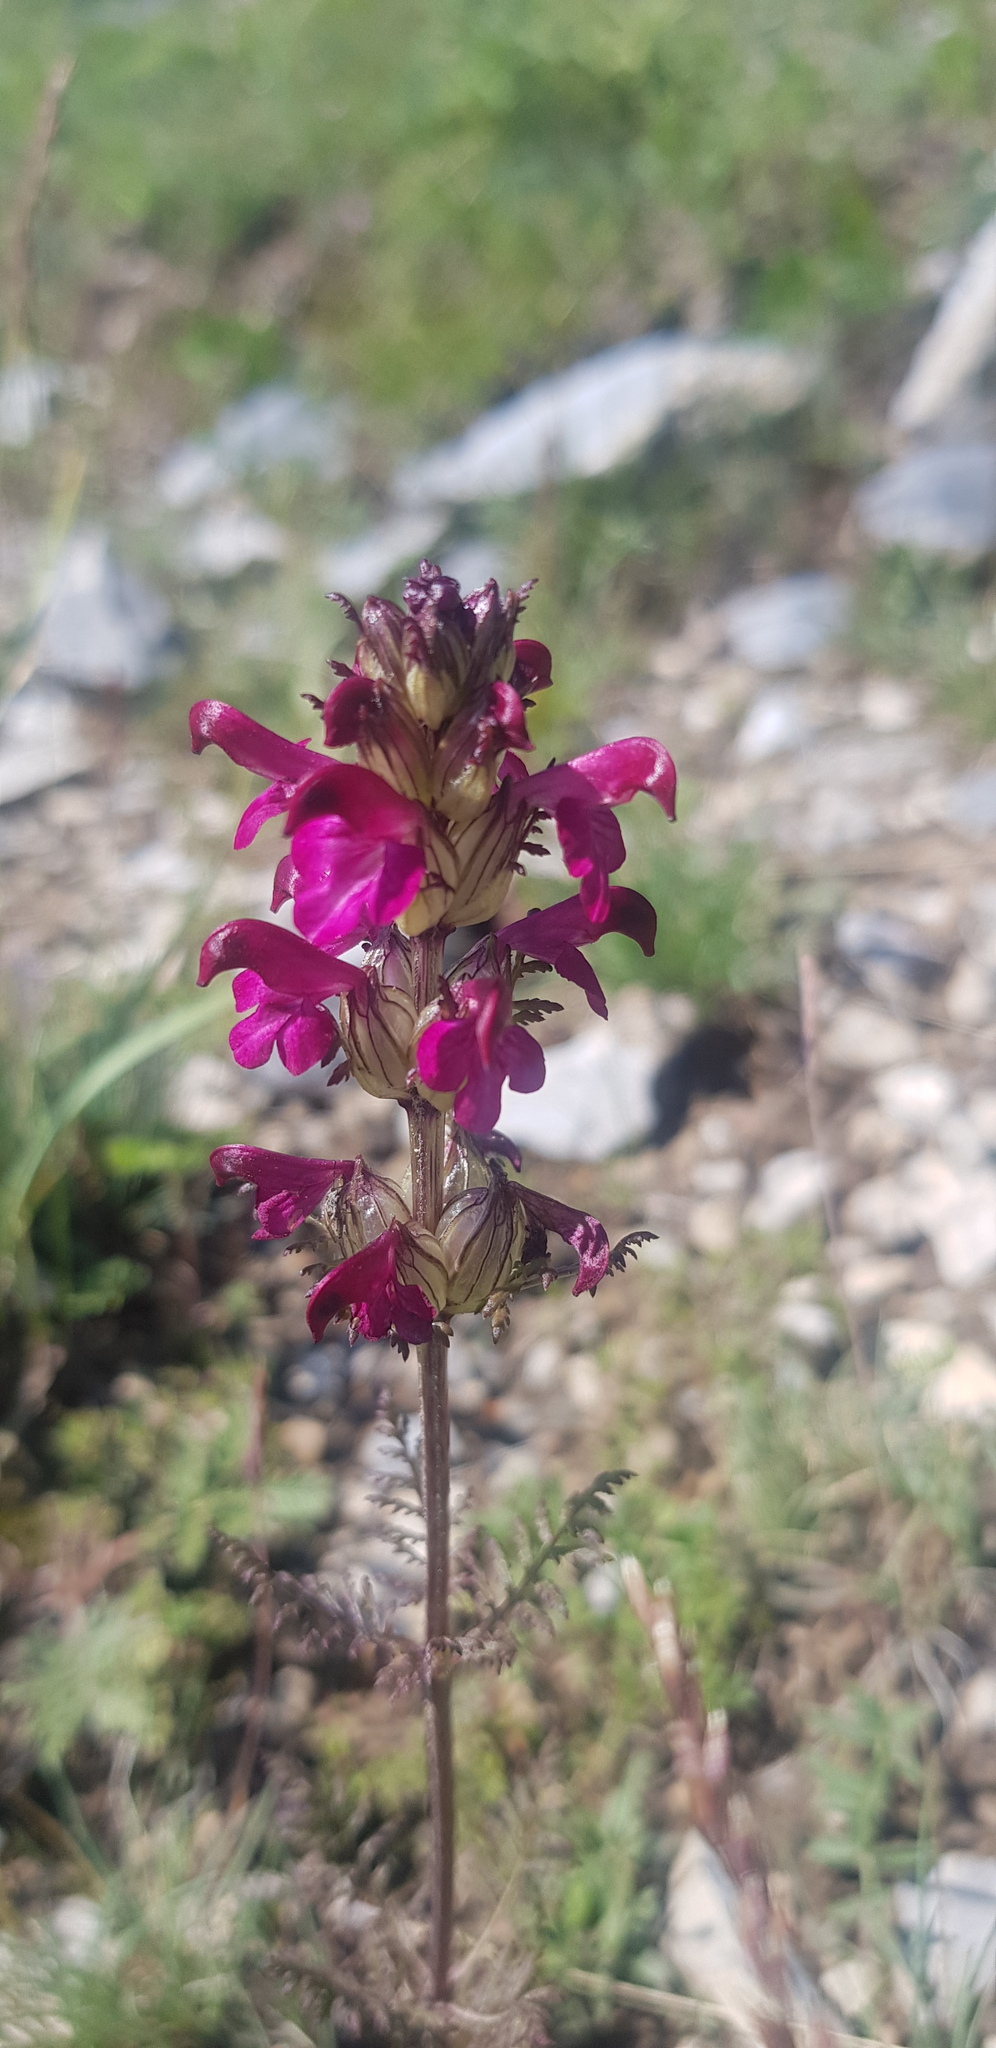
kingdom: Plantae
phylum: Tracheophyta
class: Magnoliopsida
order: Lamiales
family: Orobanchaceae
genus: Pedicularis
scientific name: Pedicularis myriophylla
